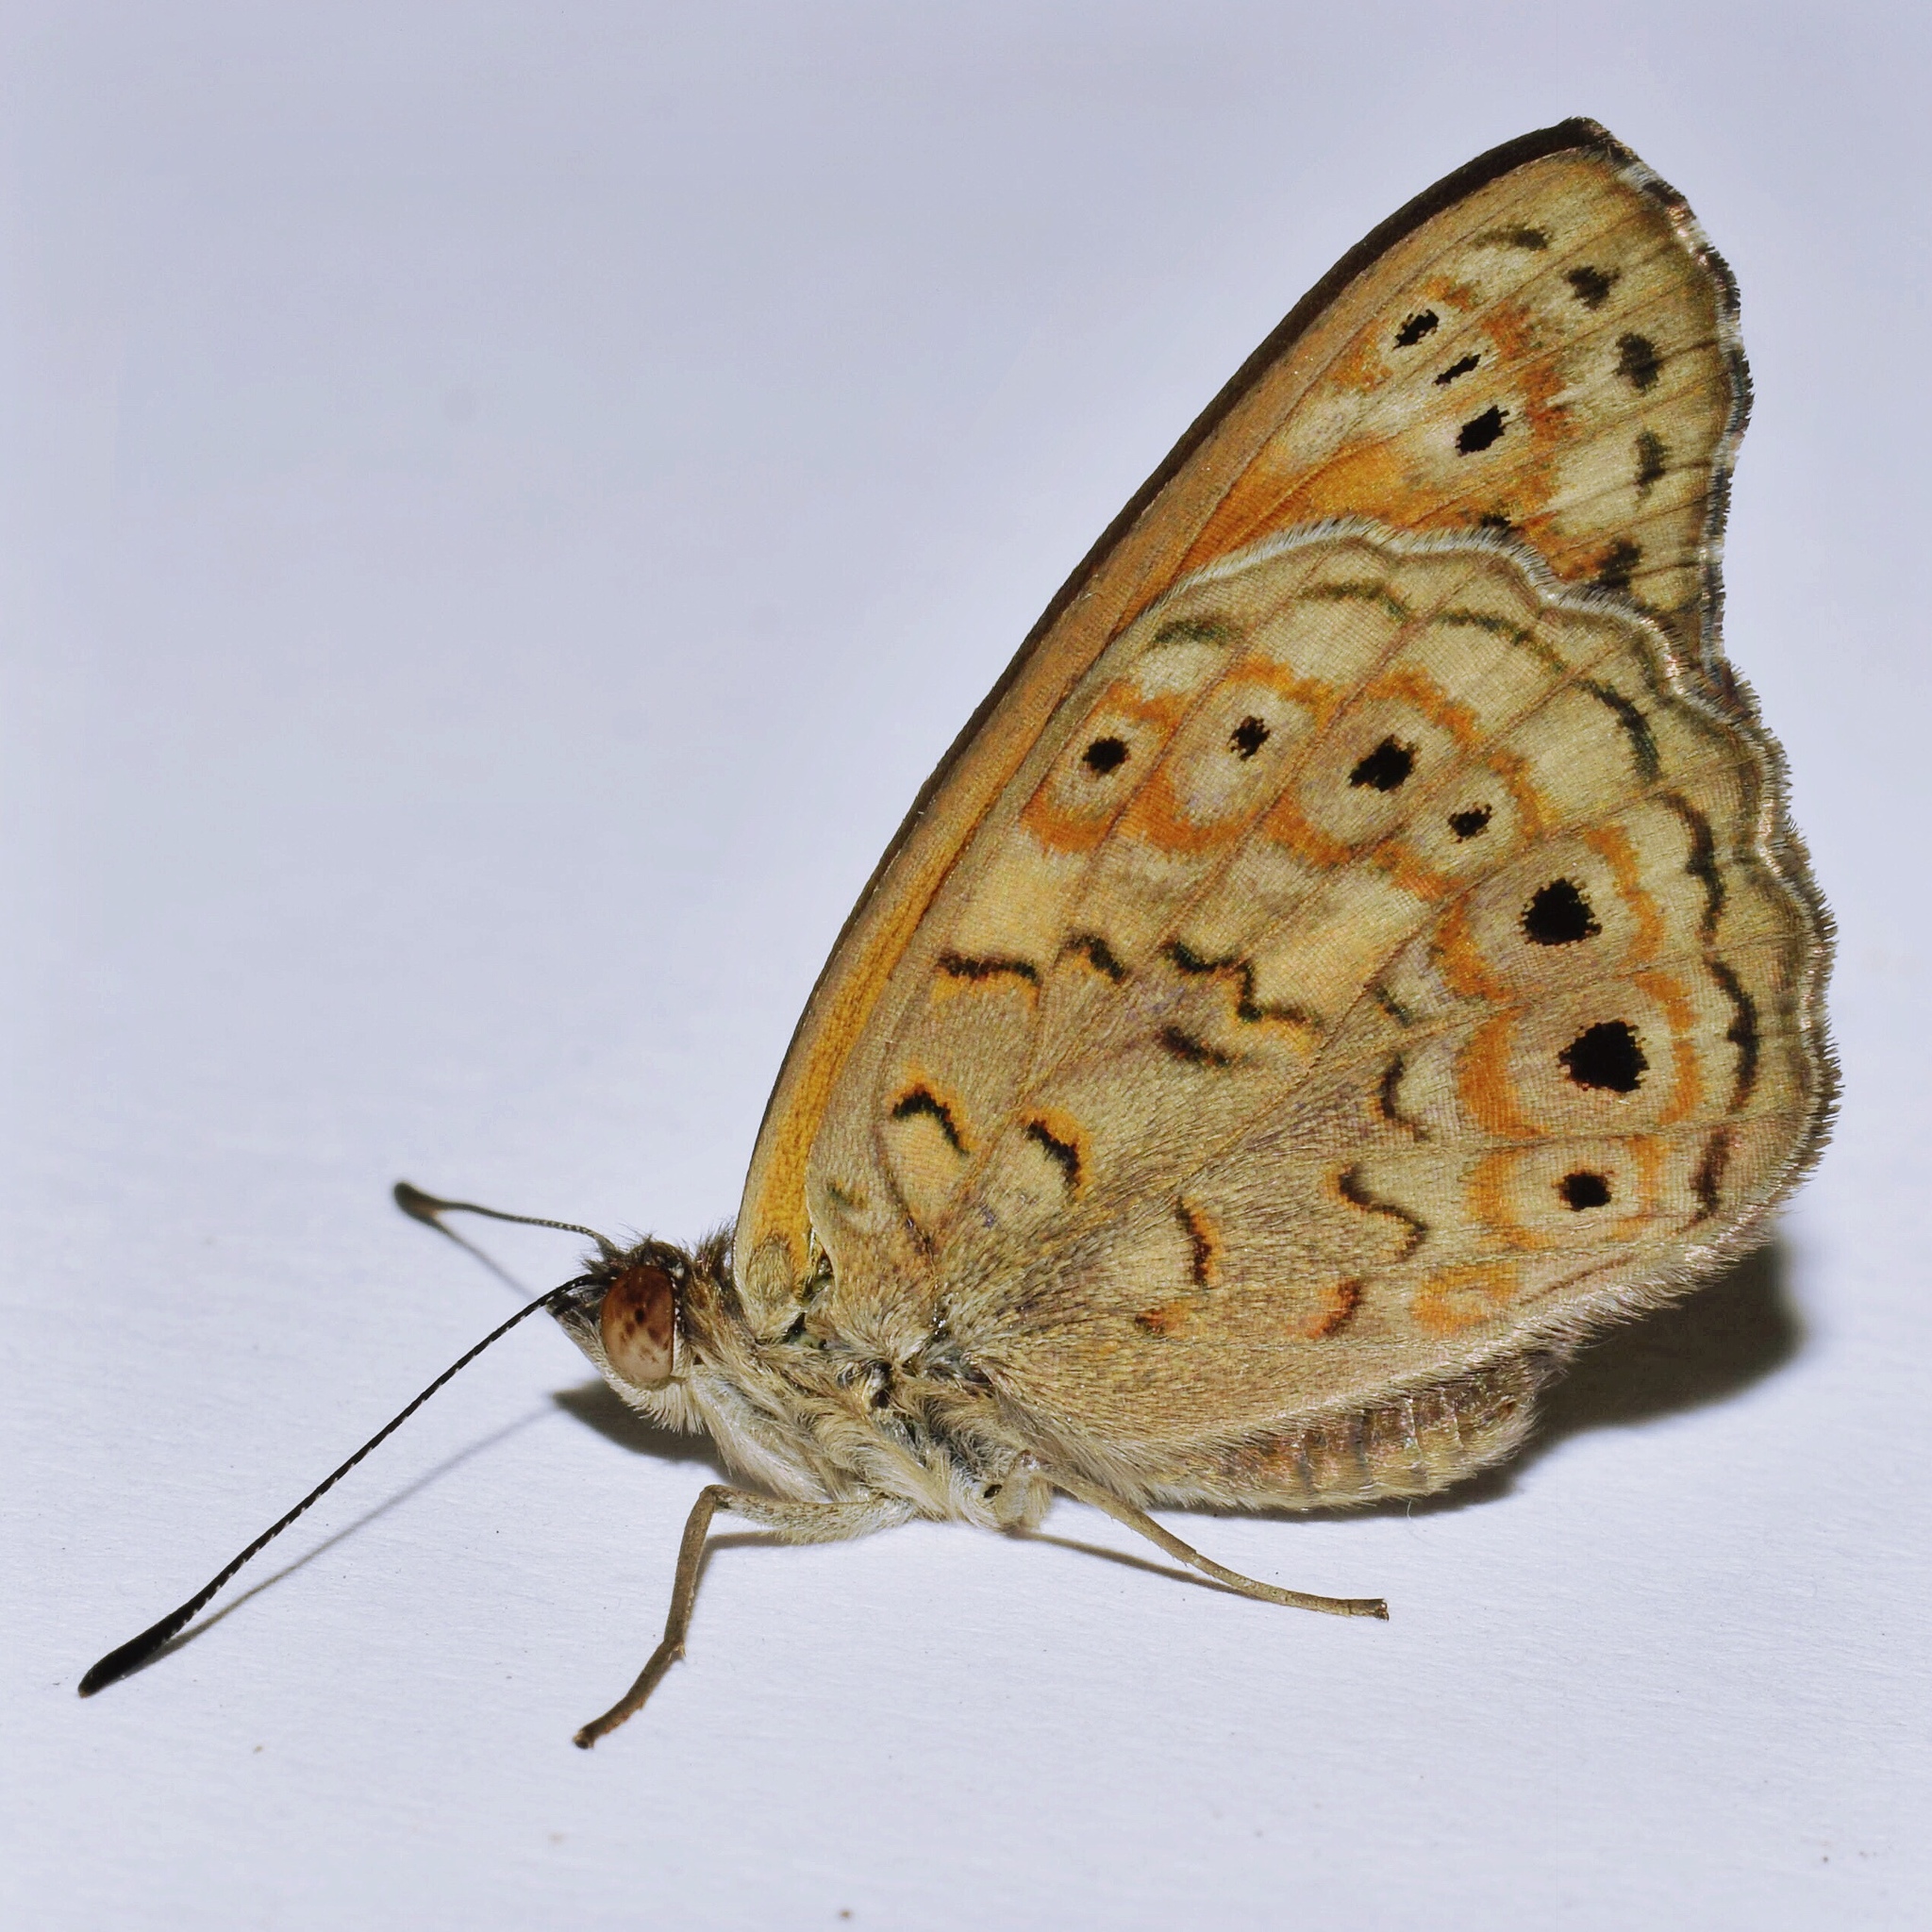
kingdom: Animalia
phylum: Arthropoda
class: Insecta
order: Lepidoptera
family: Nymphalidae
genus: Asterope
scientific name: Asterope boisduvali
